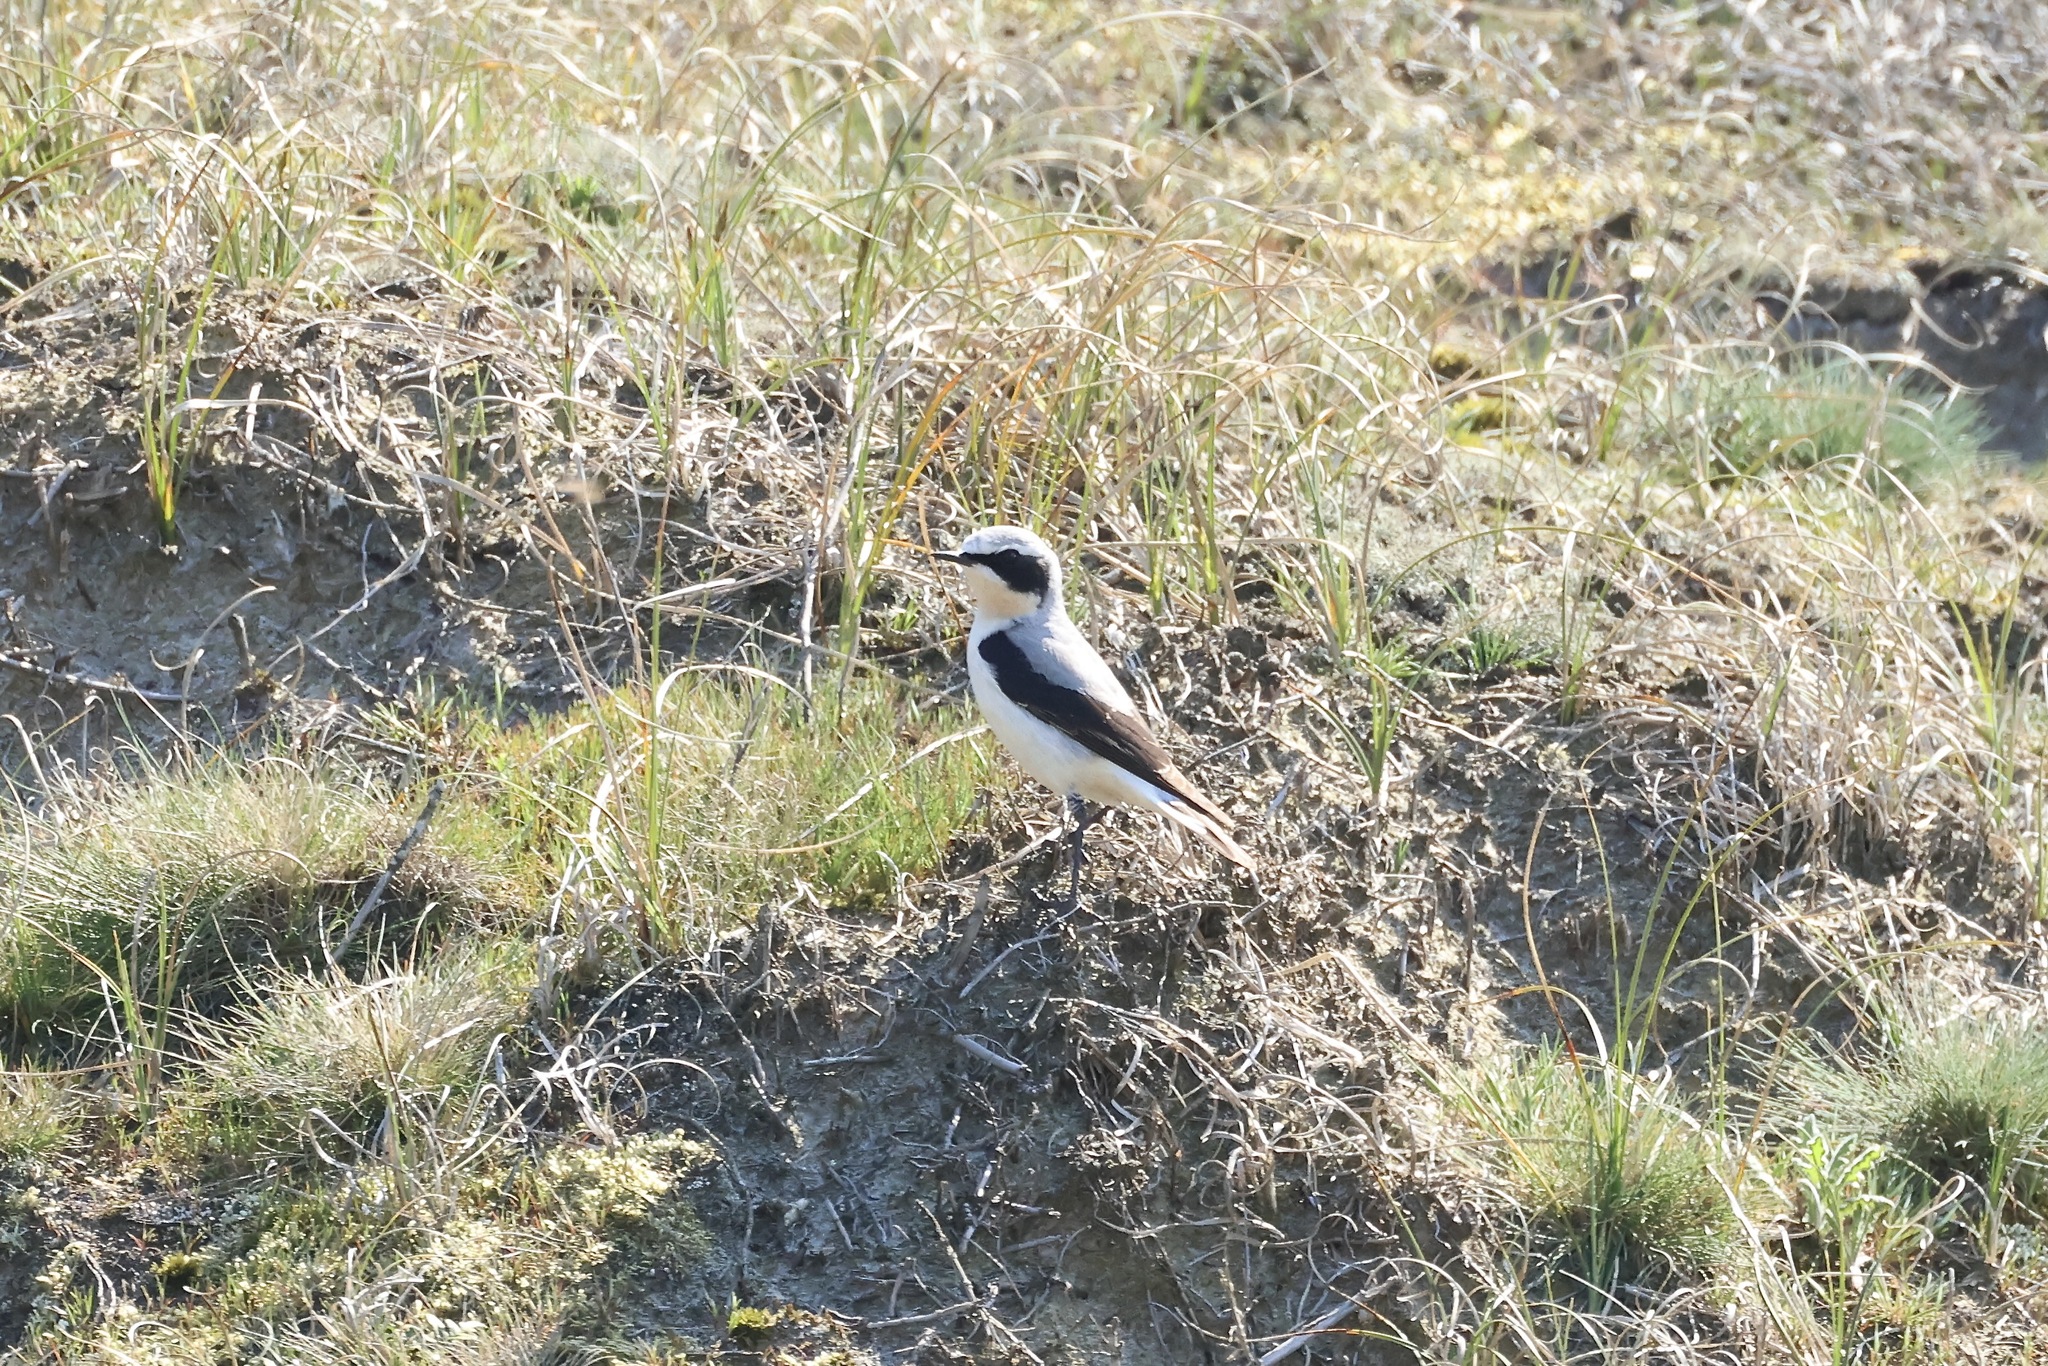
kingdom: Animalia
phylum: Chordata
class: Aves
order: Passeriformes
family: Muscicapidae
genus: Oenanthe
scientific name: Oenanthe oenanthe
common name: Northern wheatear
